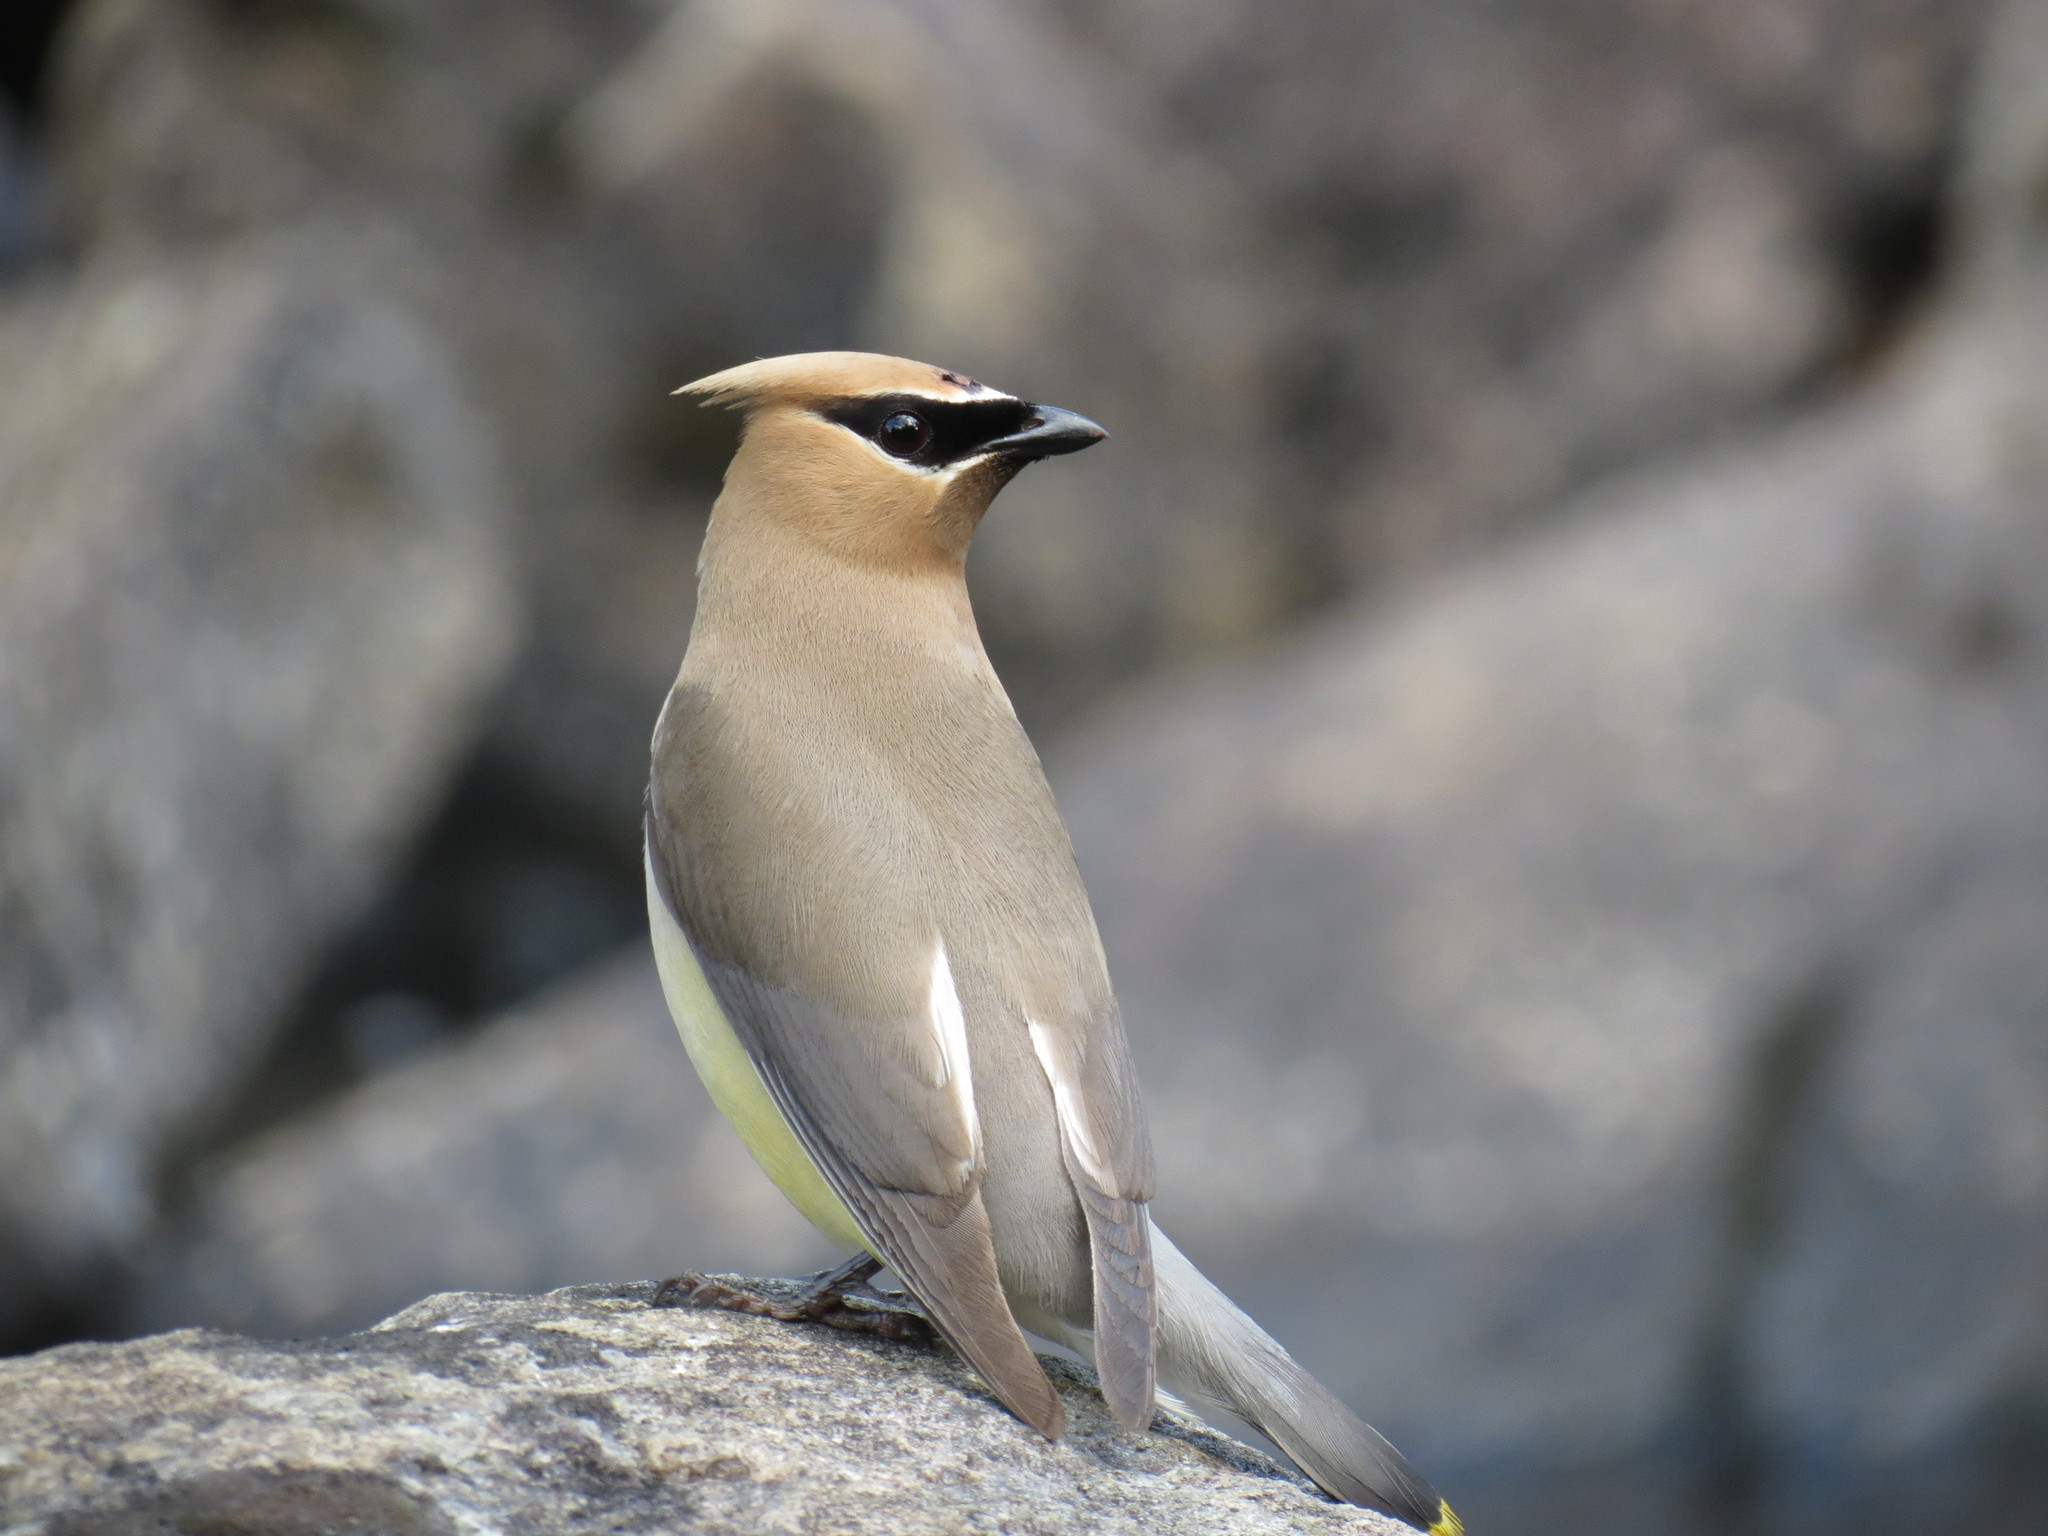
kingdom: Animalia
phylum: Chordata
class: Aves
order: Passeriformes
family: Bombycillidae
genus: Bombycilla
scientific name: Bombycilla cedrorum
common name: Cedar waxwing
